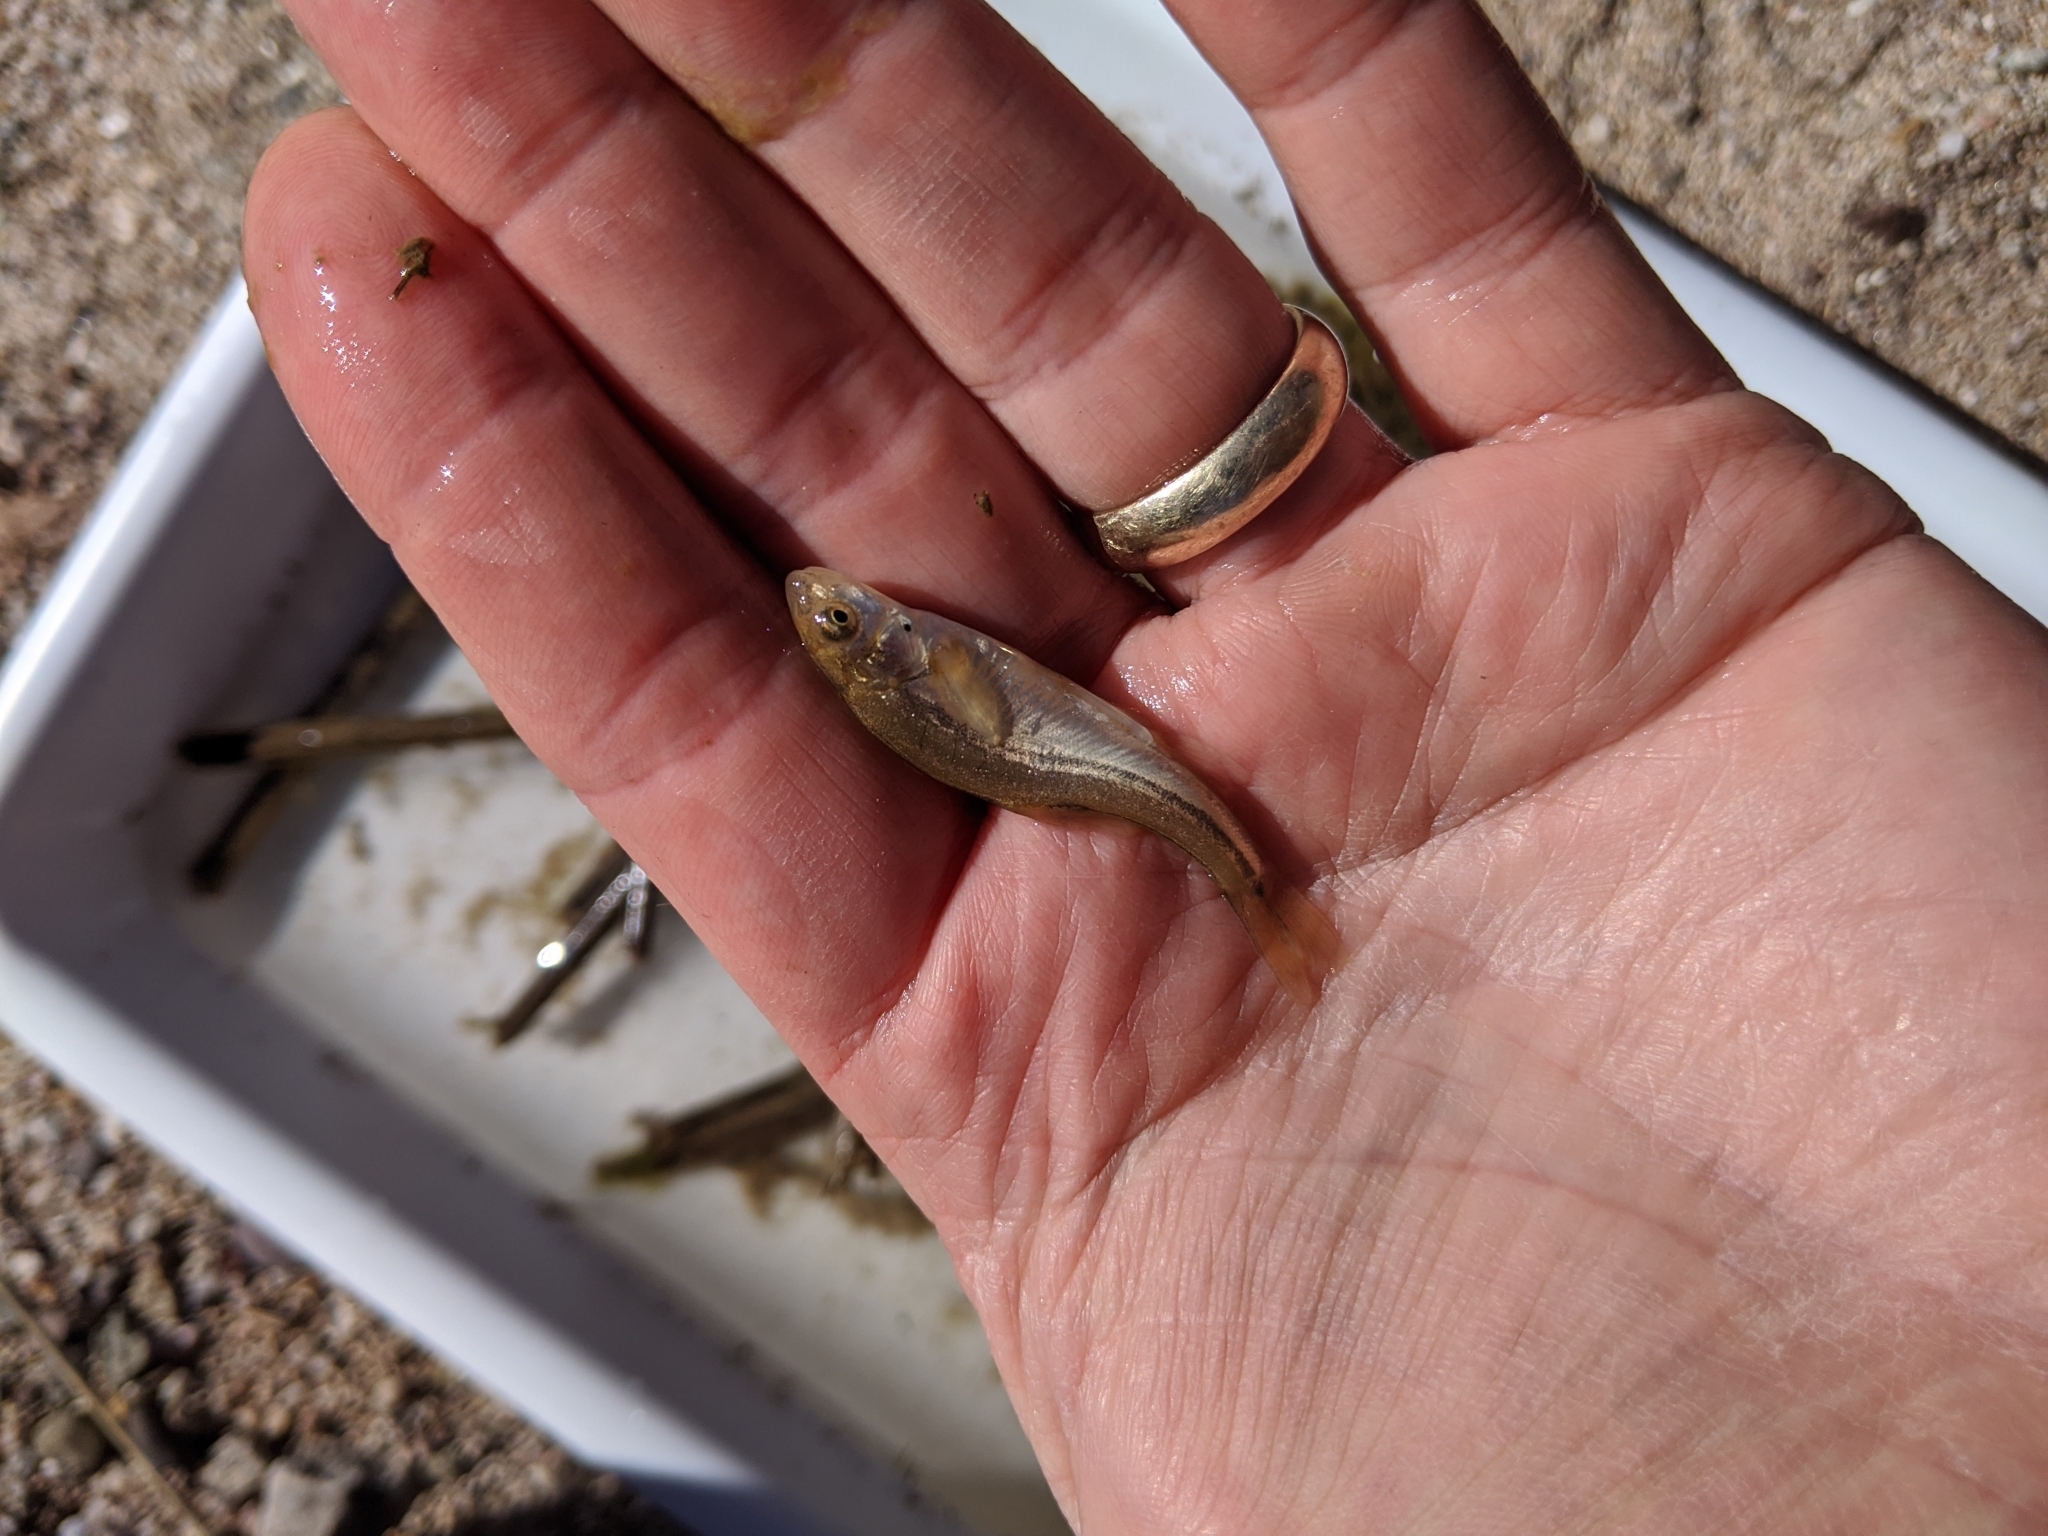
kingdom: Animalia
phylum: Chordata
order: Cypriniformes
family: Cyprinidae
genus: Agosia
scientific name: Agosia chrysogaster
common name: Longfin dace
